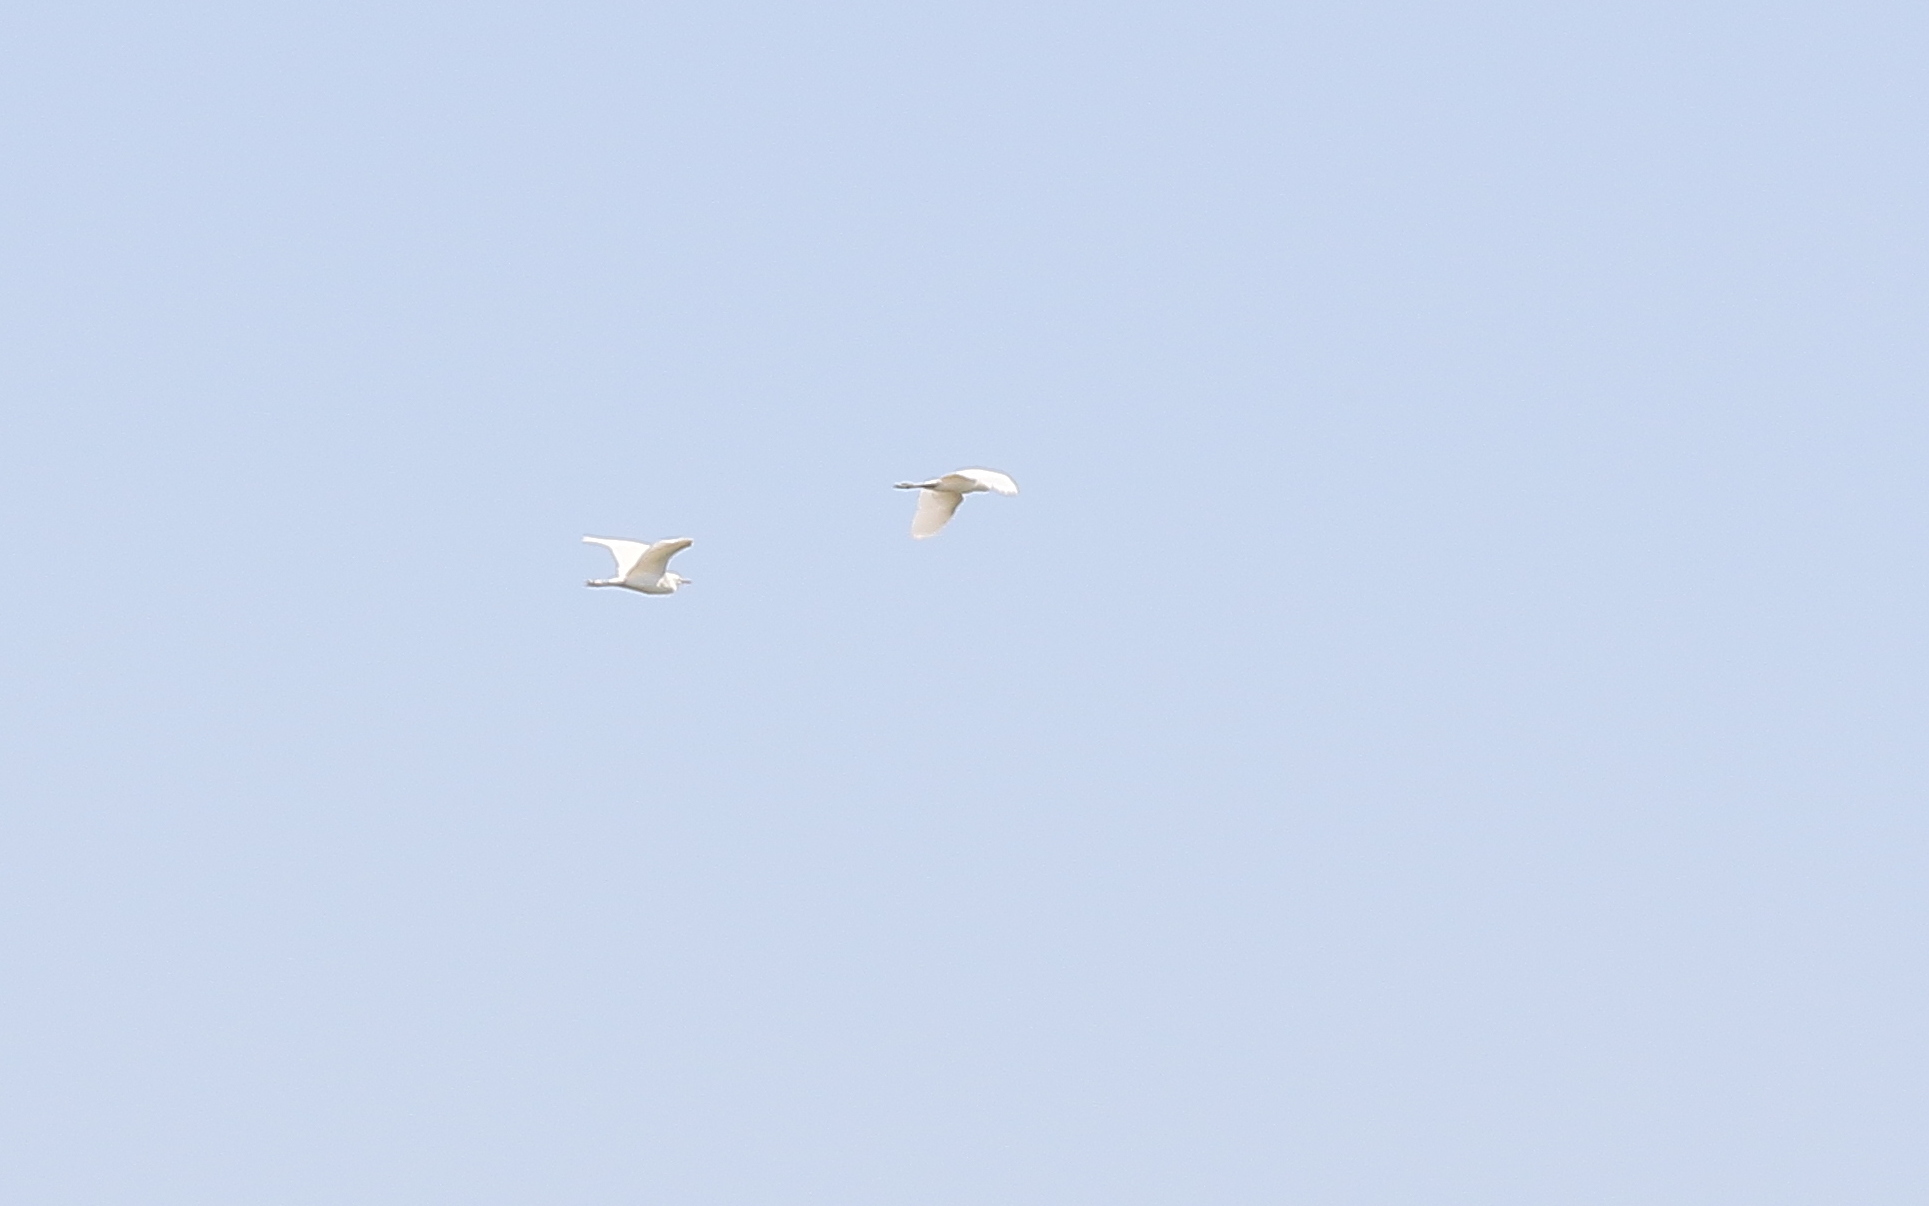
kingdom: Animalia
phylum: Chordata
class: Aves
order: Pelecaniformes
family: Ardeidae
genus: Bubulcus
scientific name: Bubulcus ibis
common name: Cattle egret
